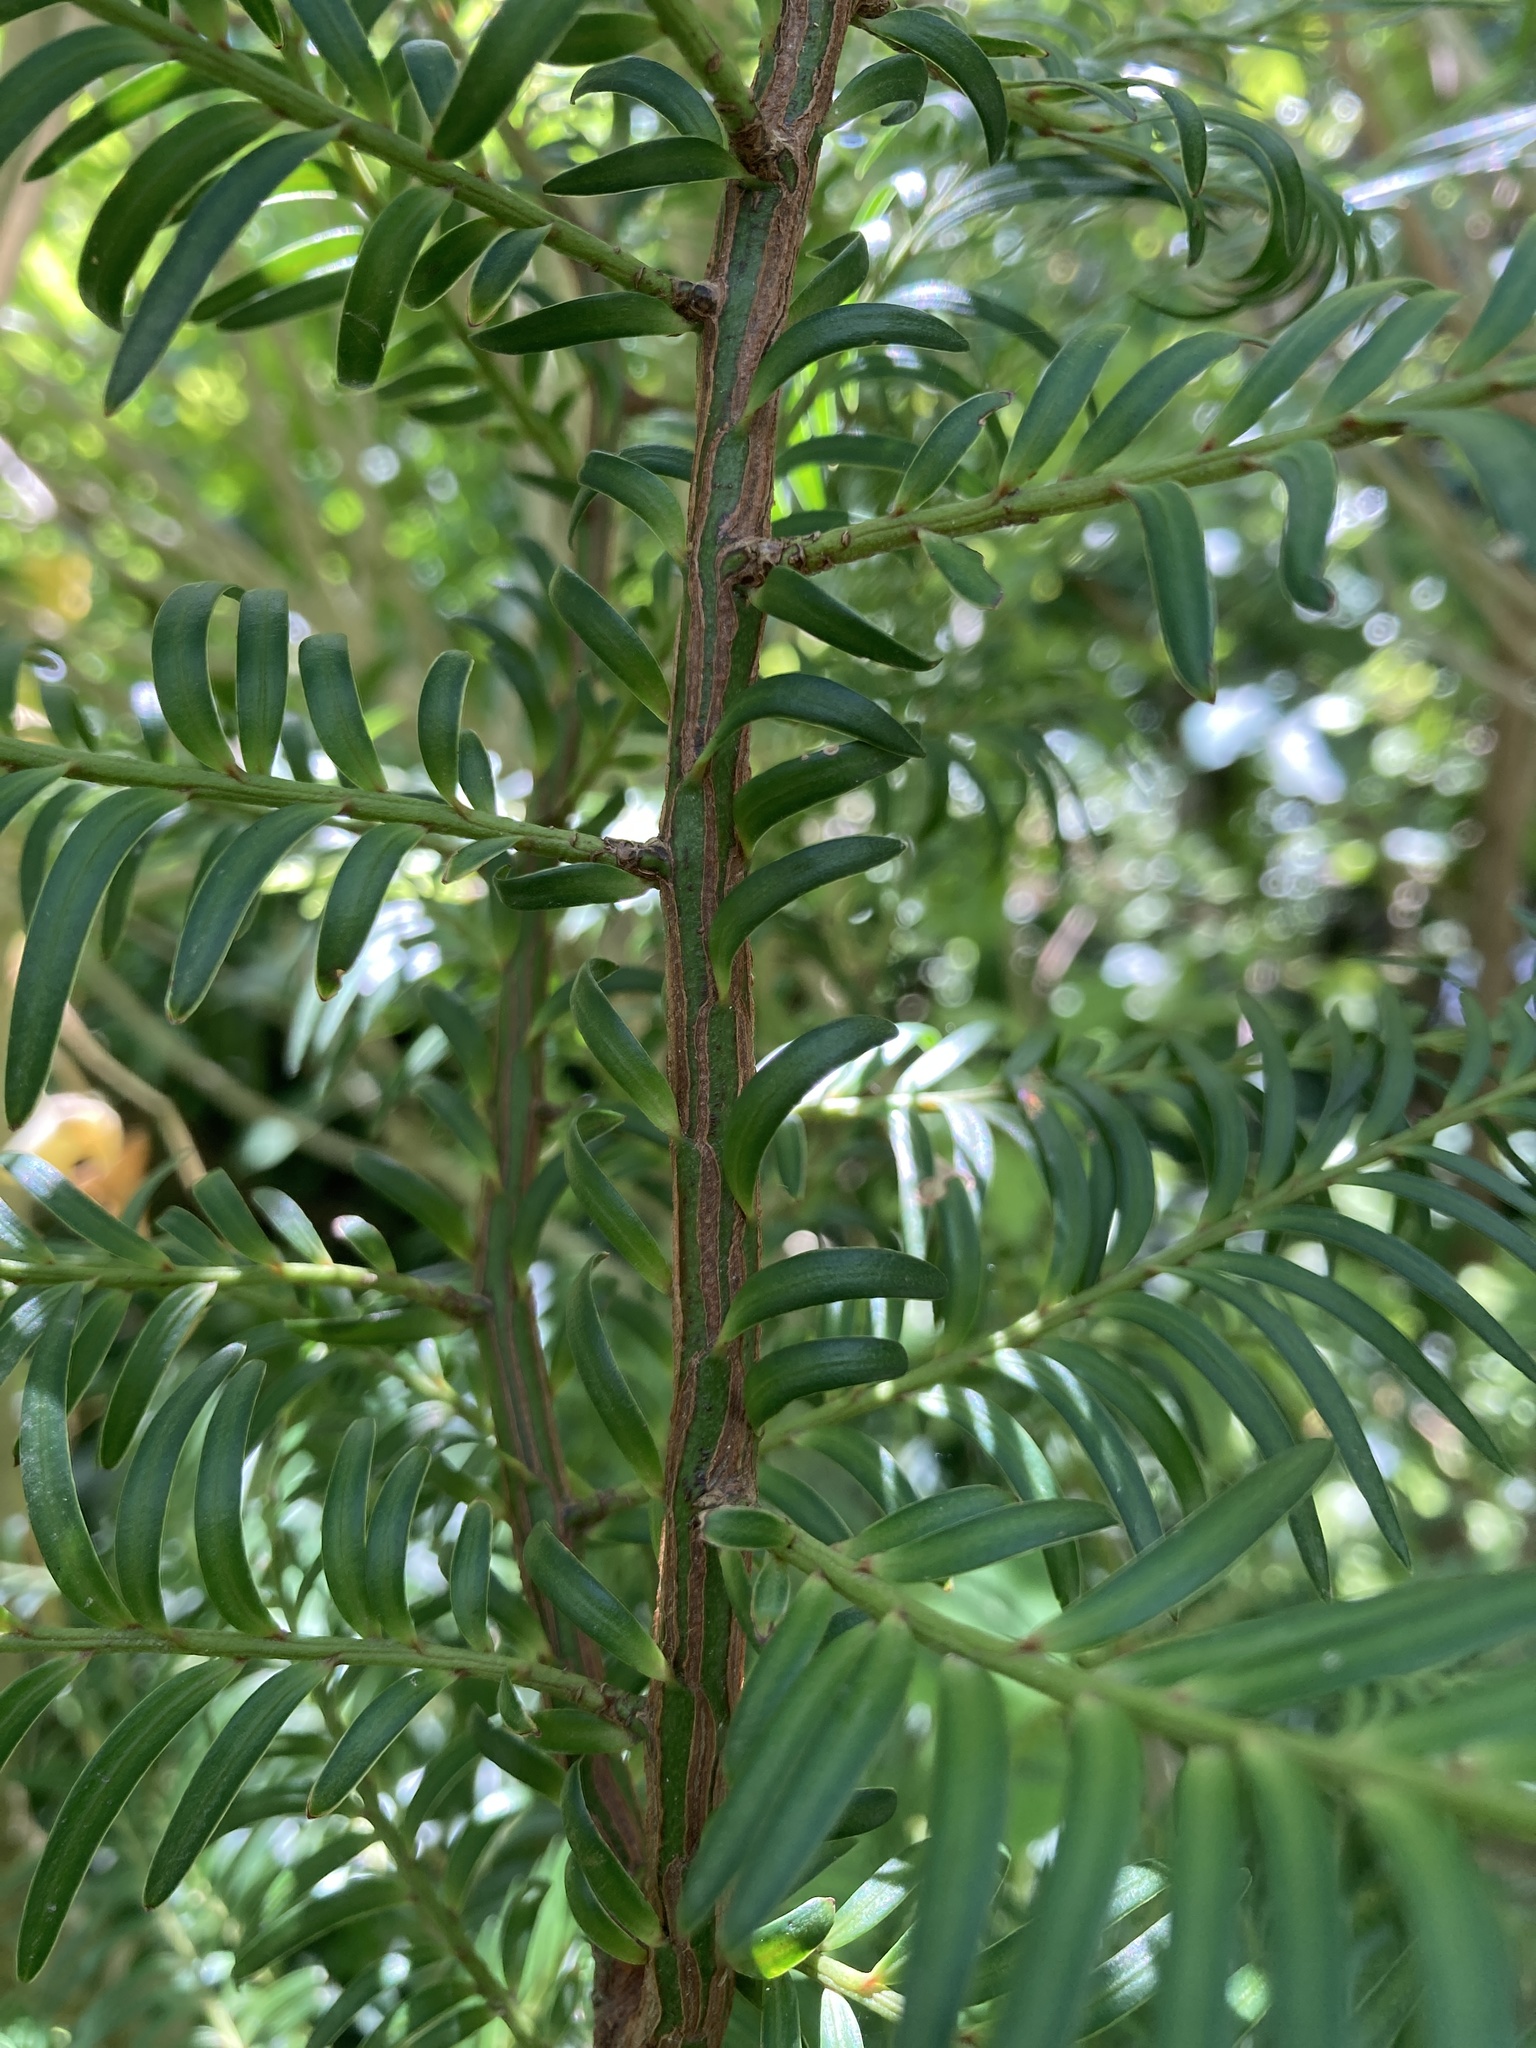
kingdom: Plantae
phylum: Tracheophyta
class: Pinopsida
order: Pinales
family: Podocarpaceae
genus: Prumnopitys
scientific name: Prumnopitys ferruginea
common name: Brown pine
